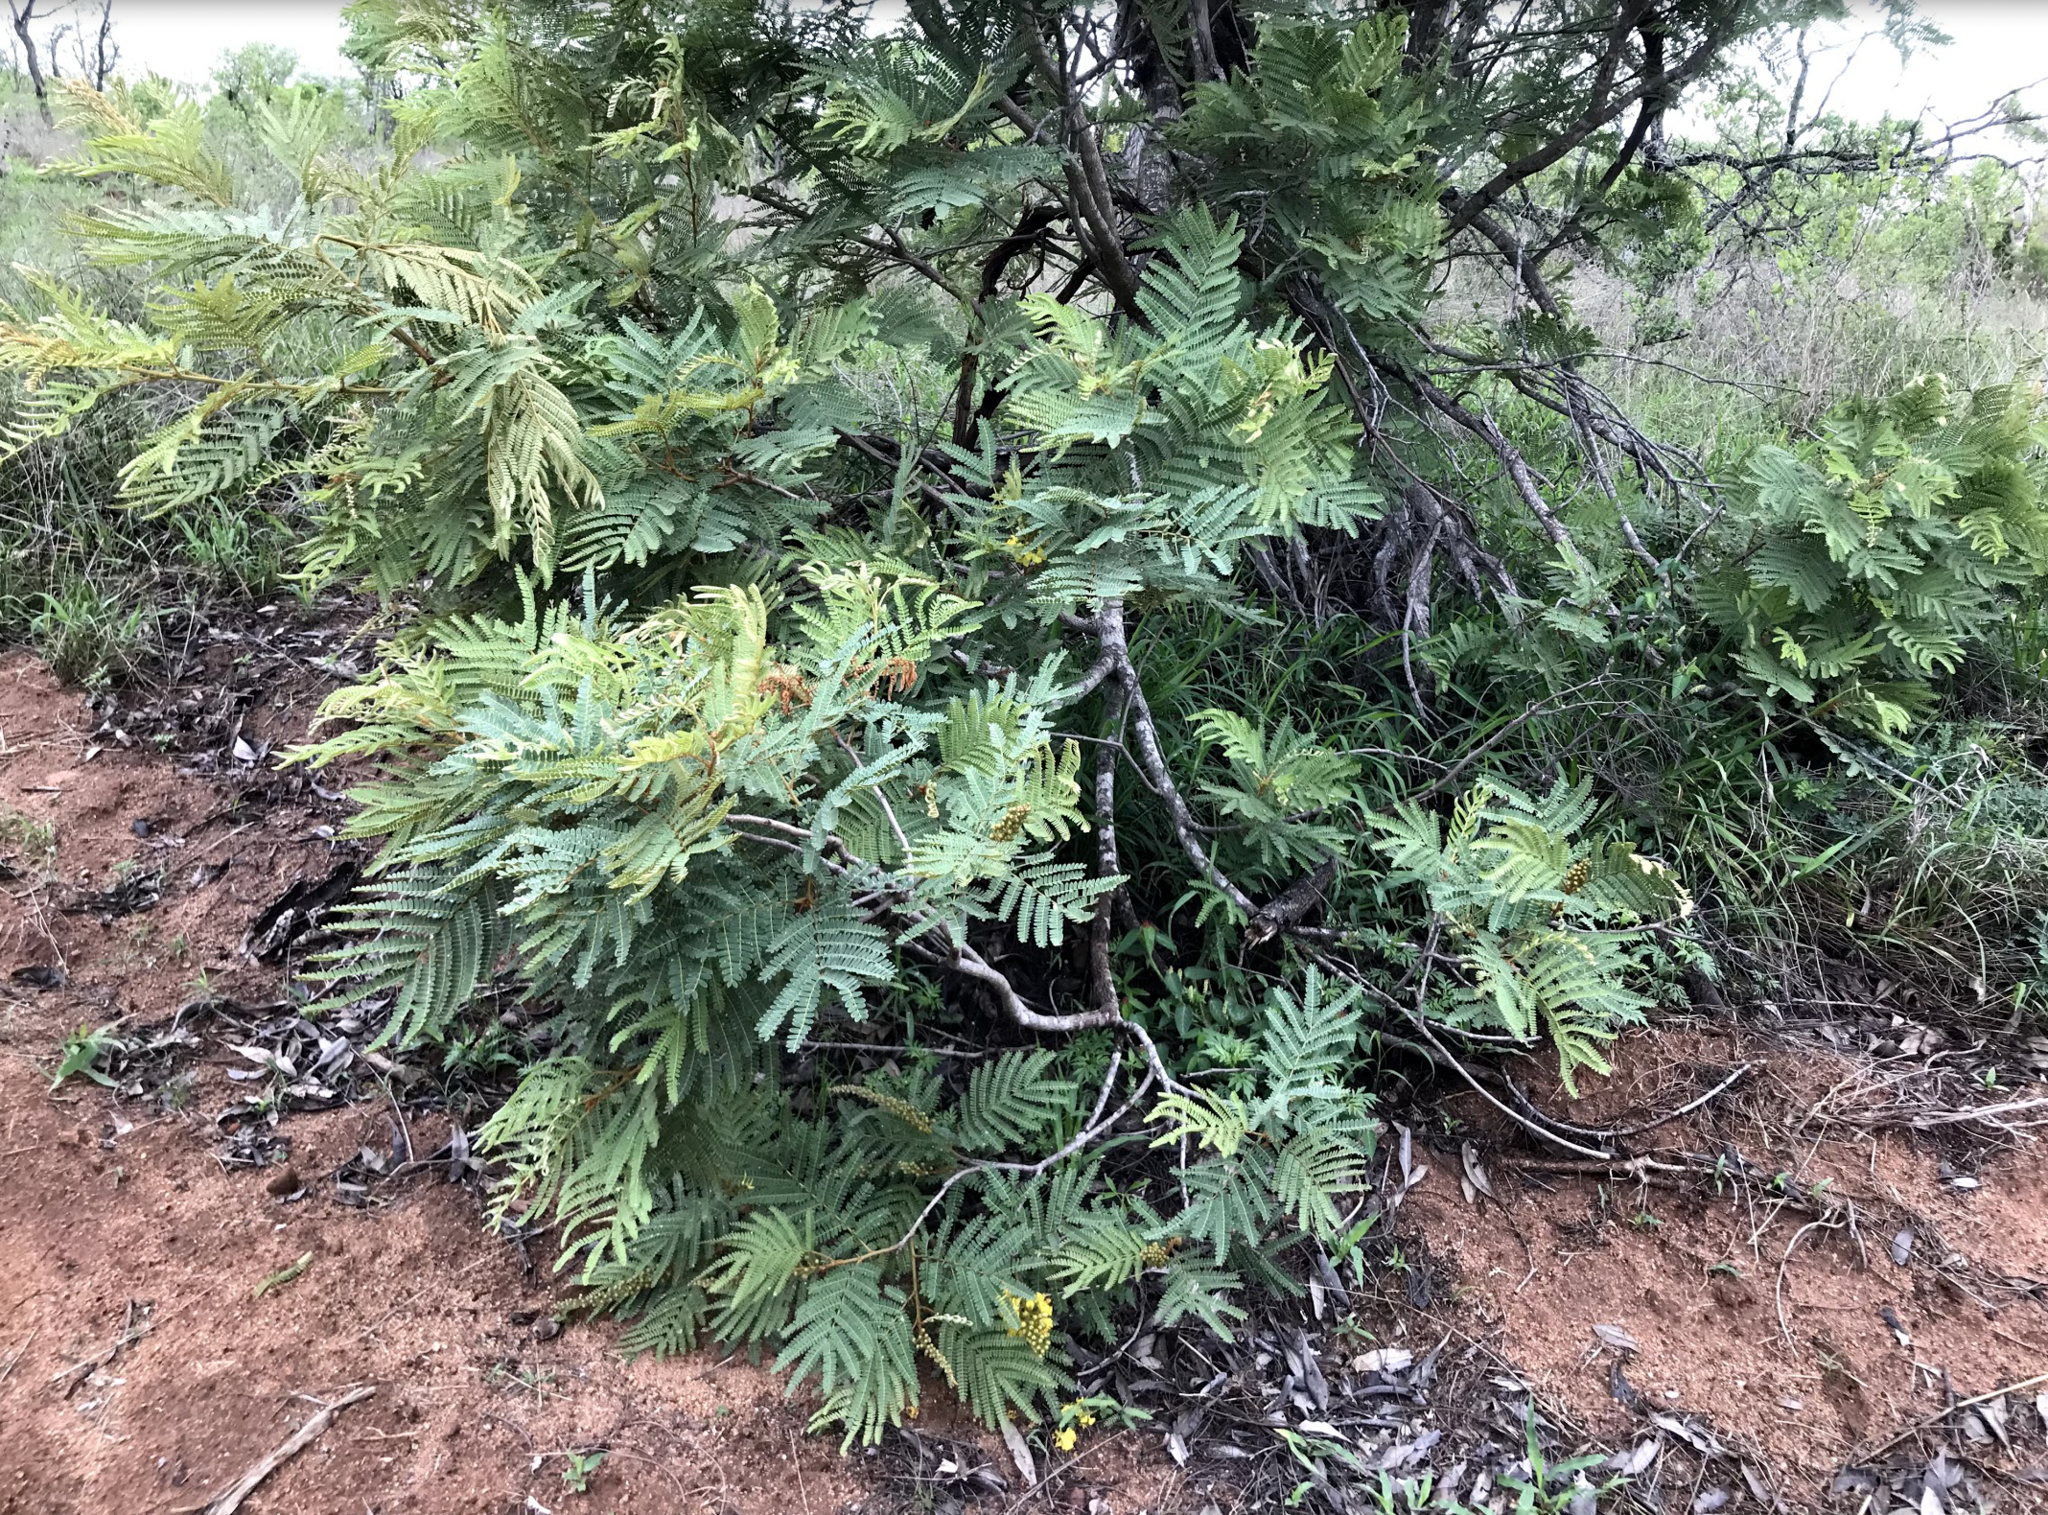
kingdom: Plantae
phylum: Tracheophyta
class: Magnoliopsida
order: Fabales
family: Fabaceae
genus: Peltophorum
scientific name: Peltophorum africanum
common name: African black wattle
